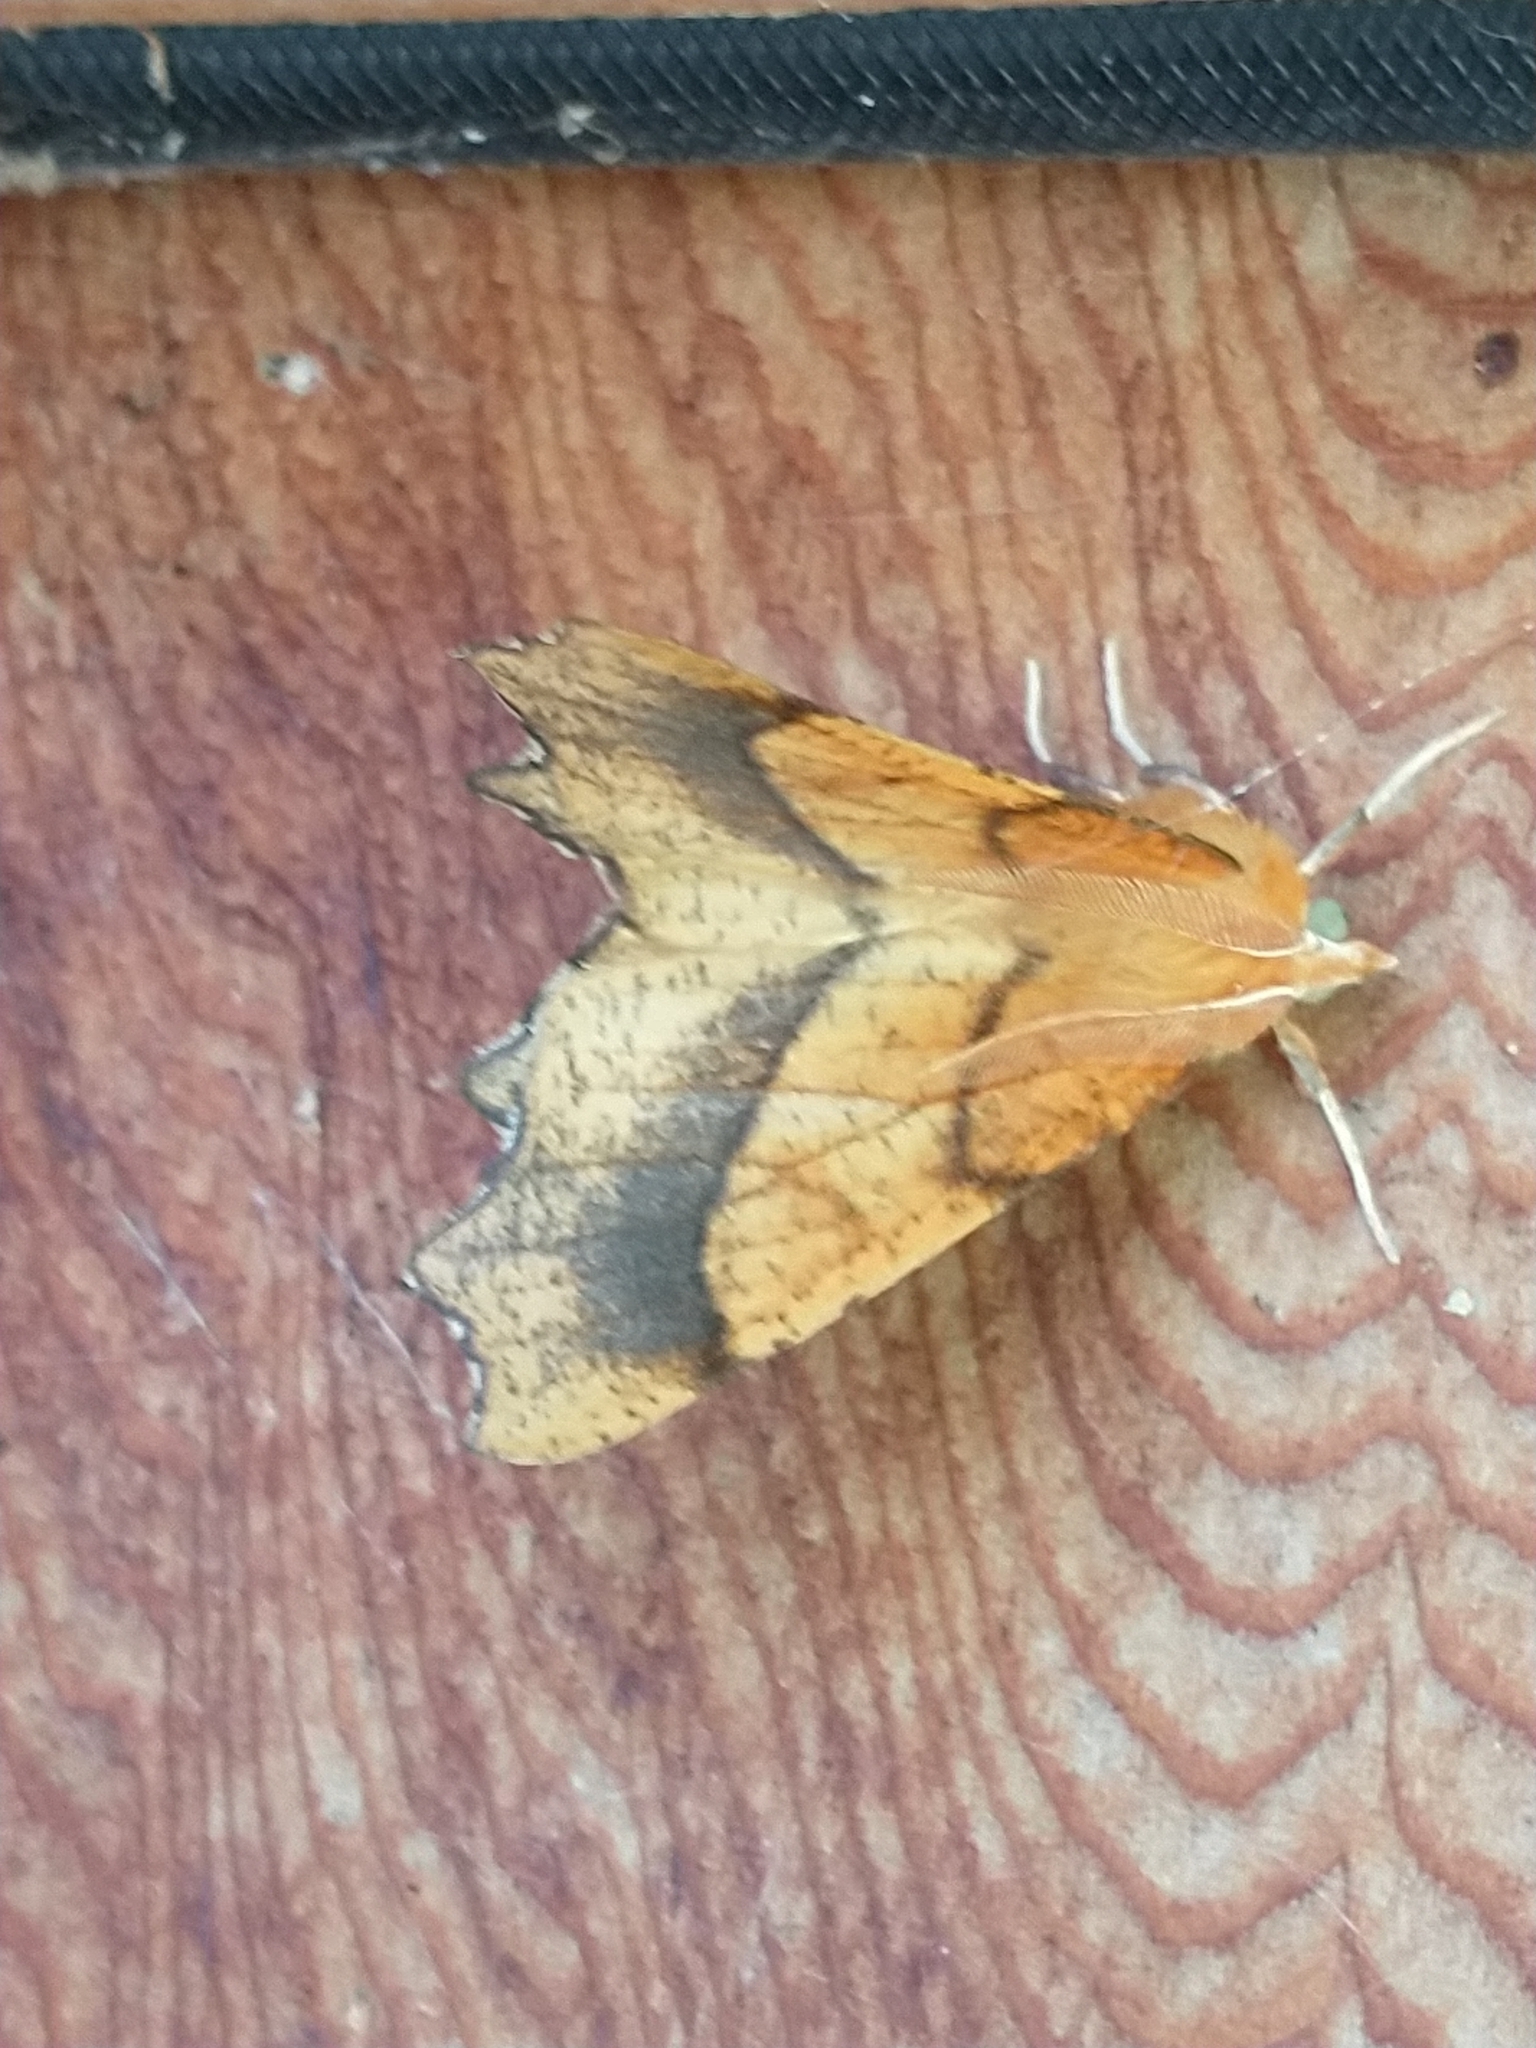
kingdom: Animalia
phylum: Arthropoda
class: Insecta
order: Lepidoptera
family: Geometridae
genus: Ennomos
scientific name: Ennomos quercinaria
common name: August thorn
